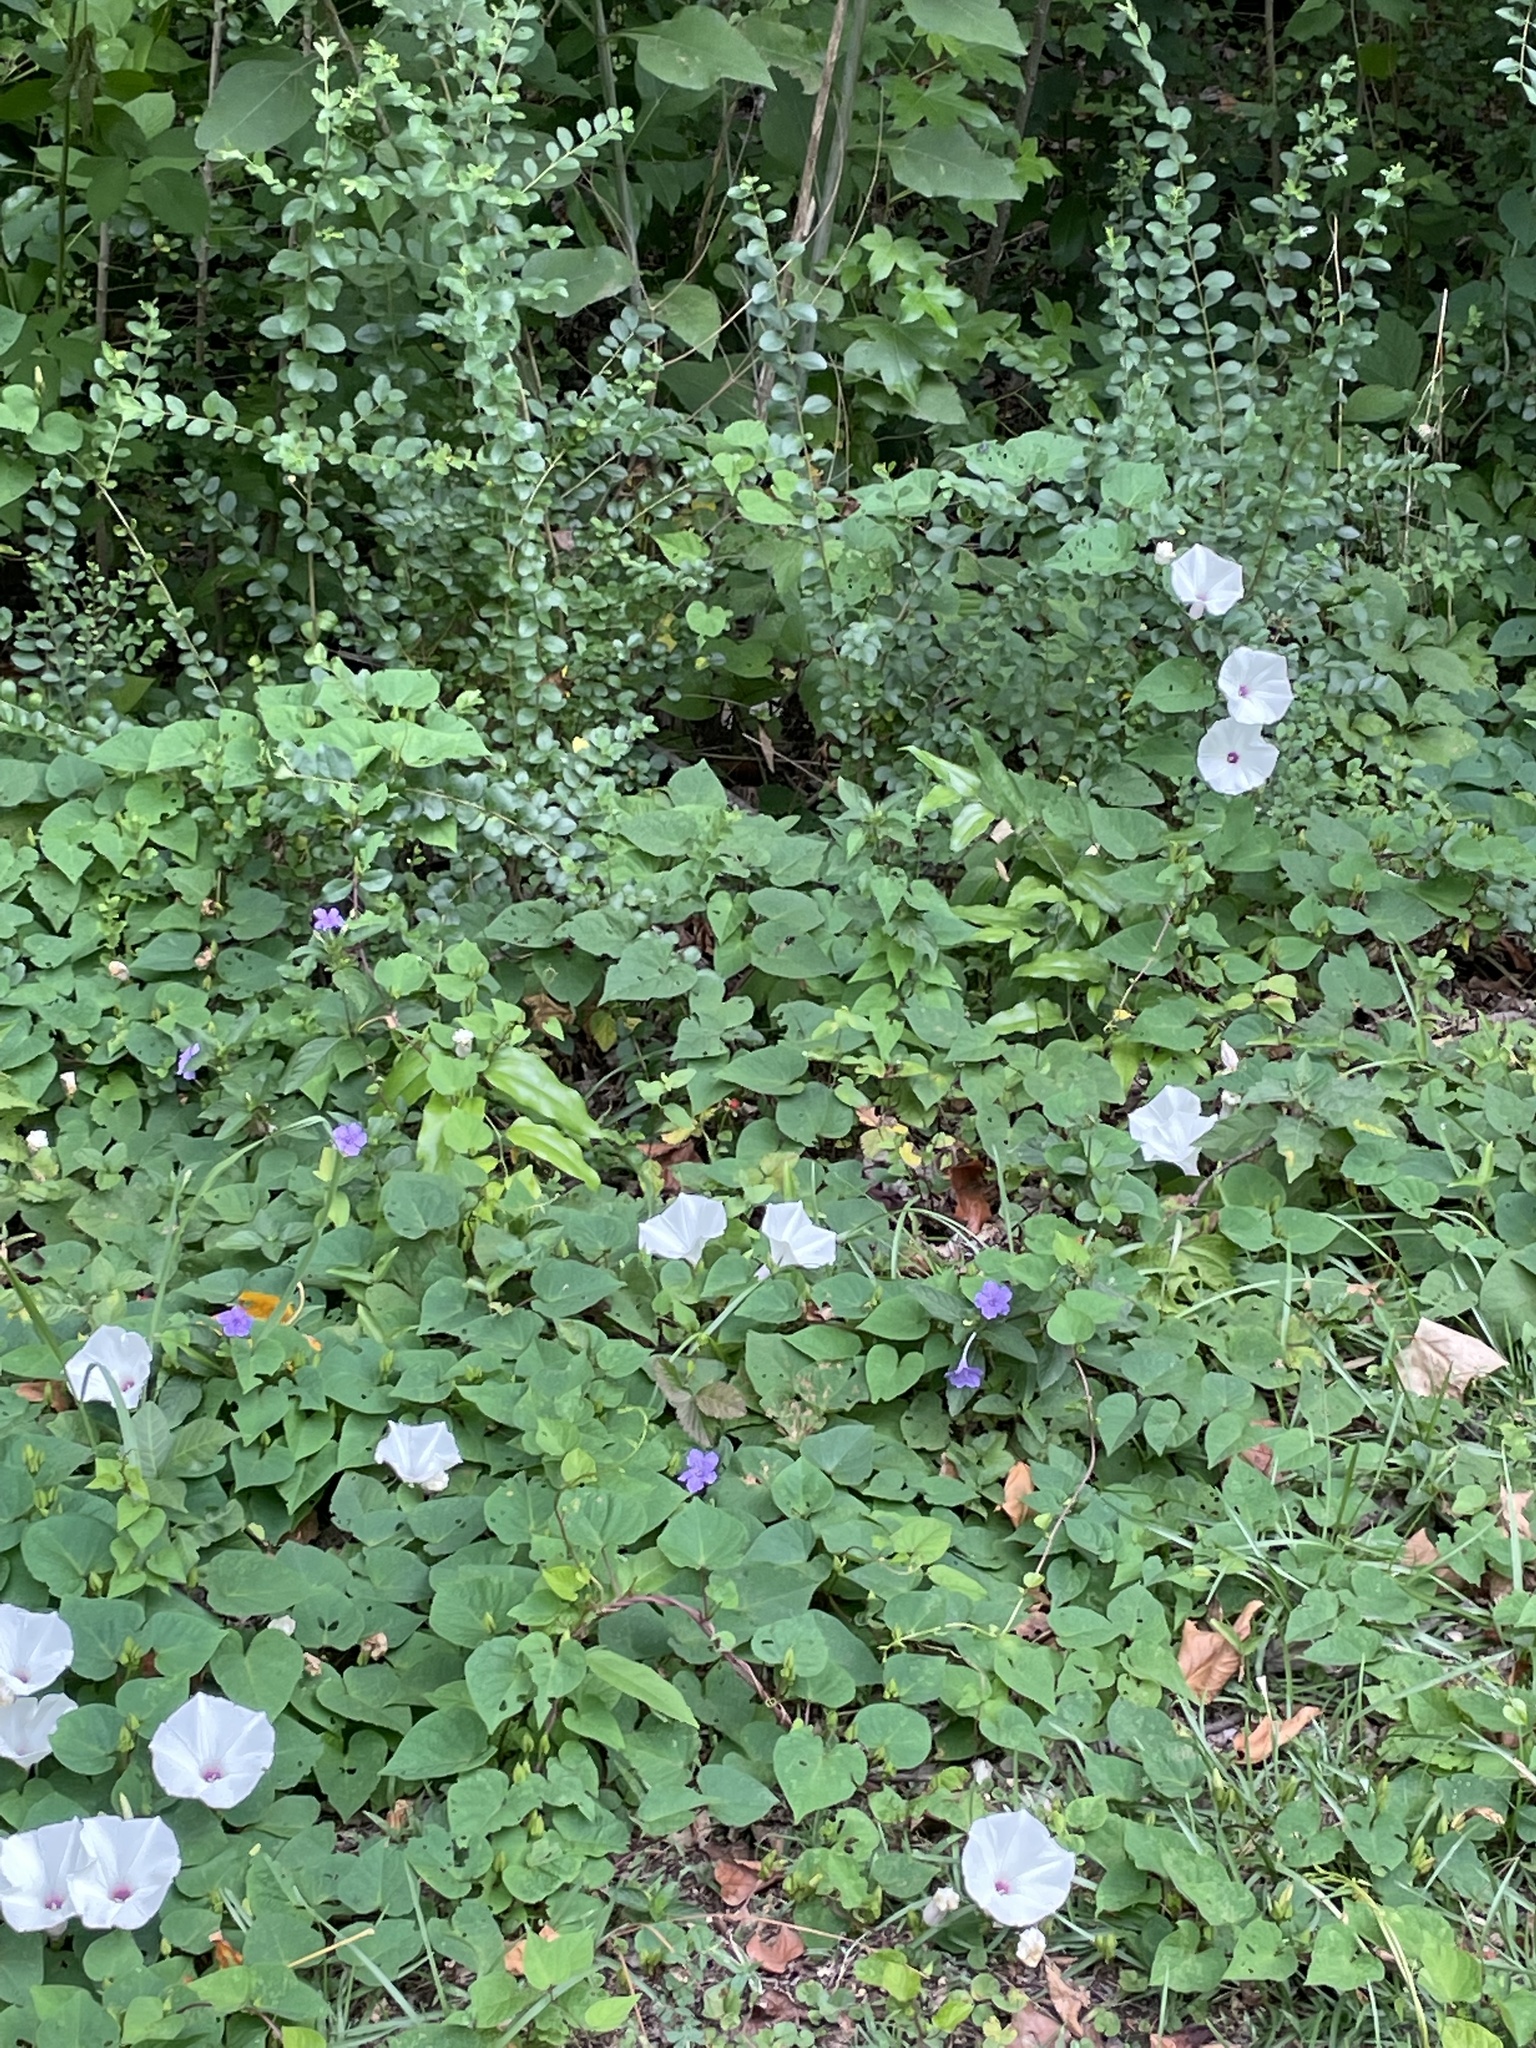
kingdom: Plantae
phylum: Tracheophyta
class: Magnoliopsida
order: Solanales
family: Convolvulaceae
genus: Ipomoea
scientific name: Ipomoea pandurata
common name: Man-of-the-earth
